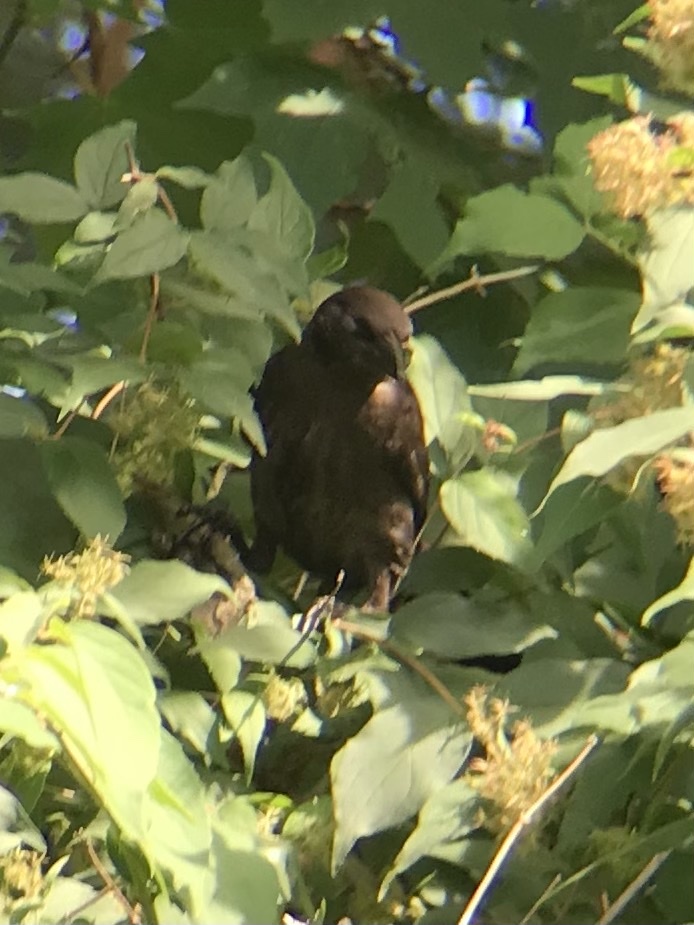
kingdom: Animalia
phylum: Chordata
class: Aves
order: Passeriformes
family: Icteridae
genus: Quiscalus
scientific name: Quiscalus quiscula
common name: Common grackle
